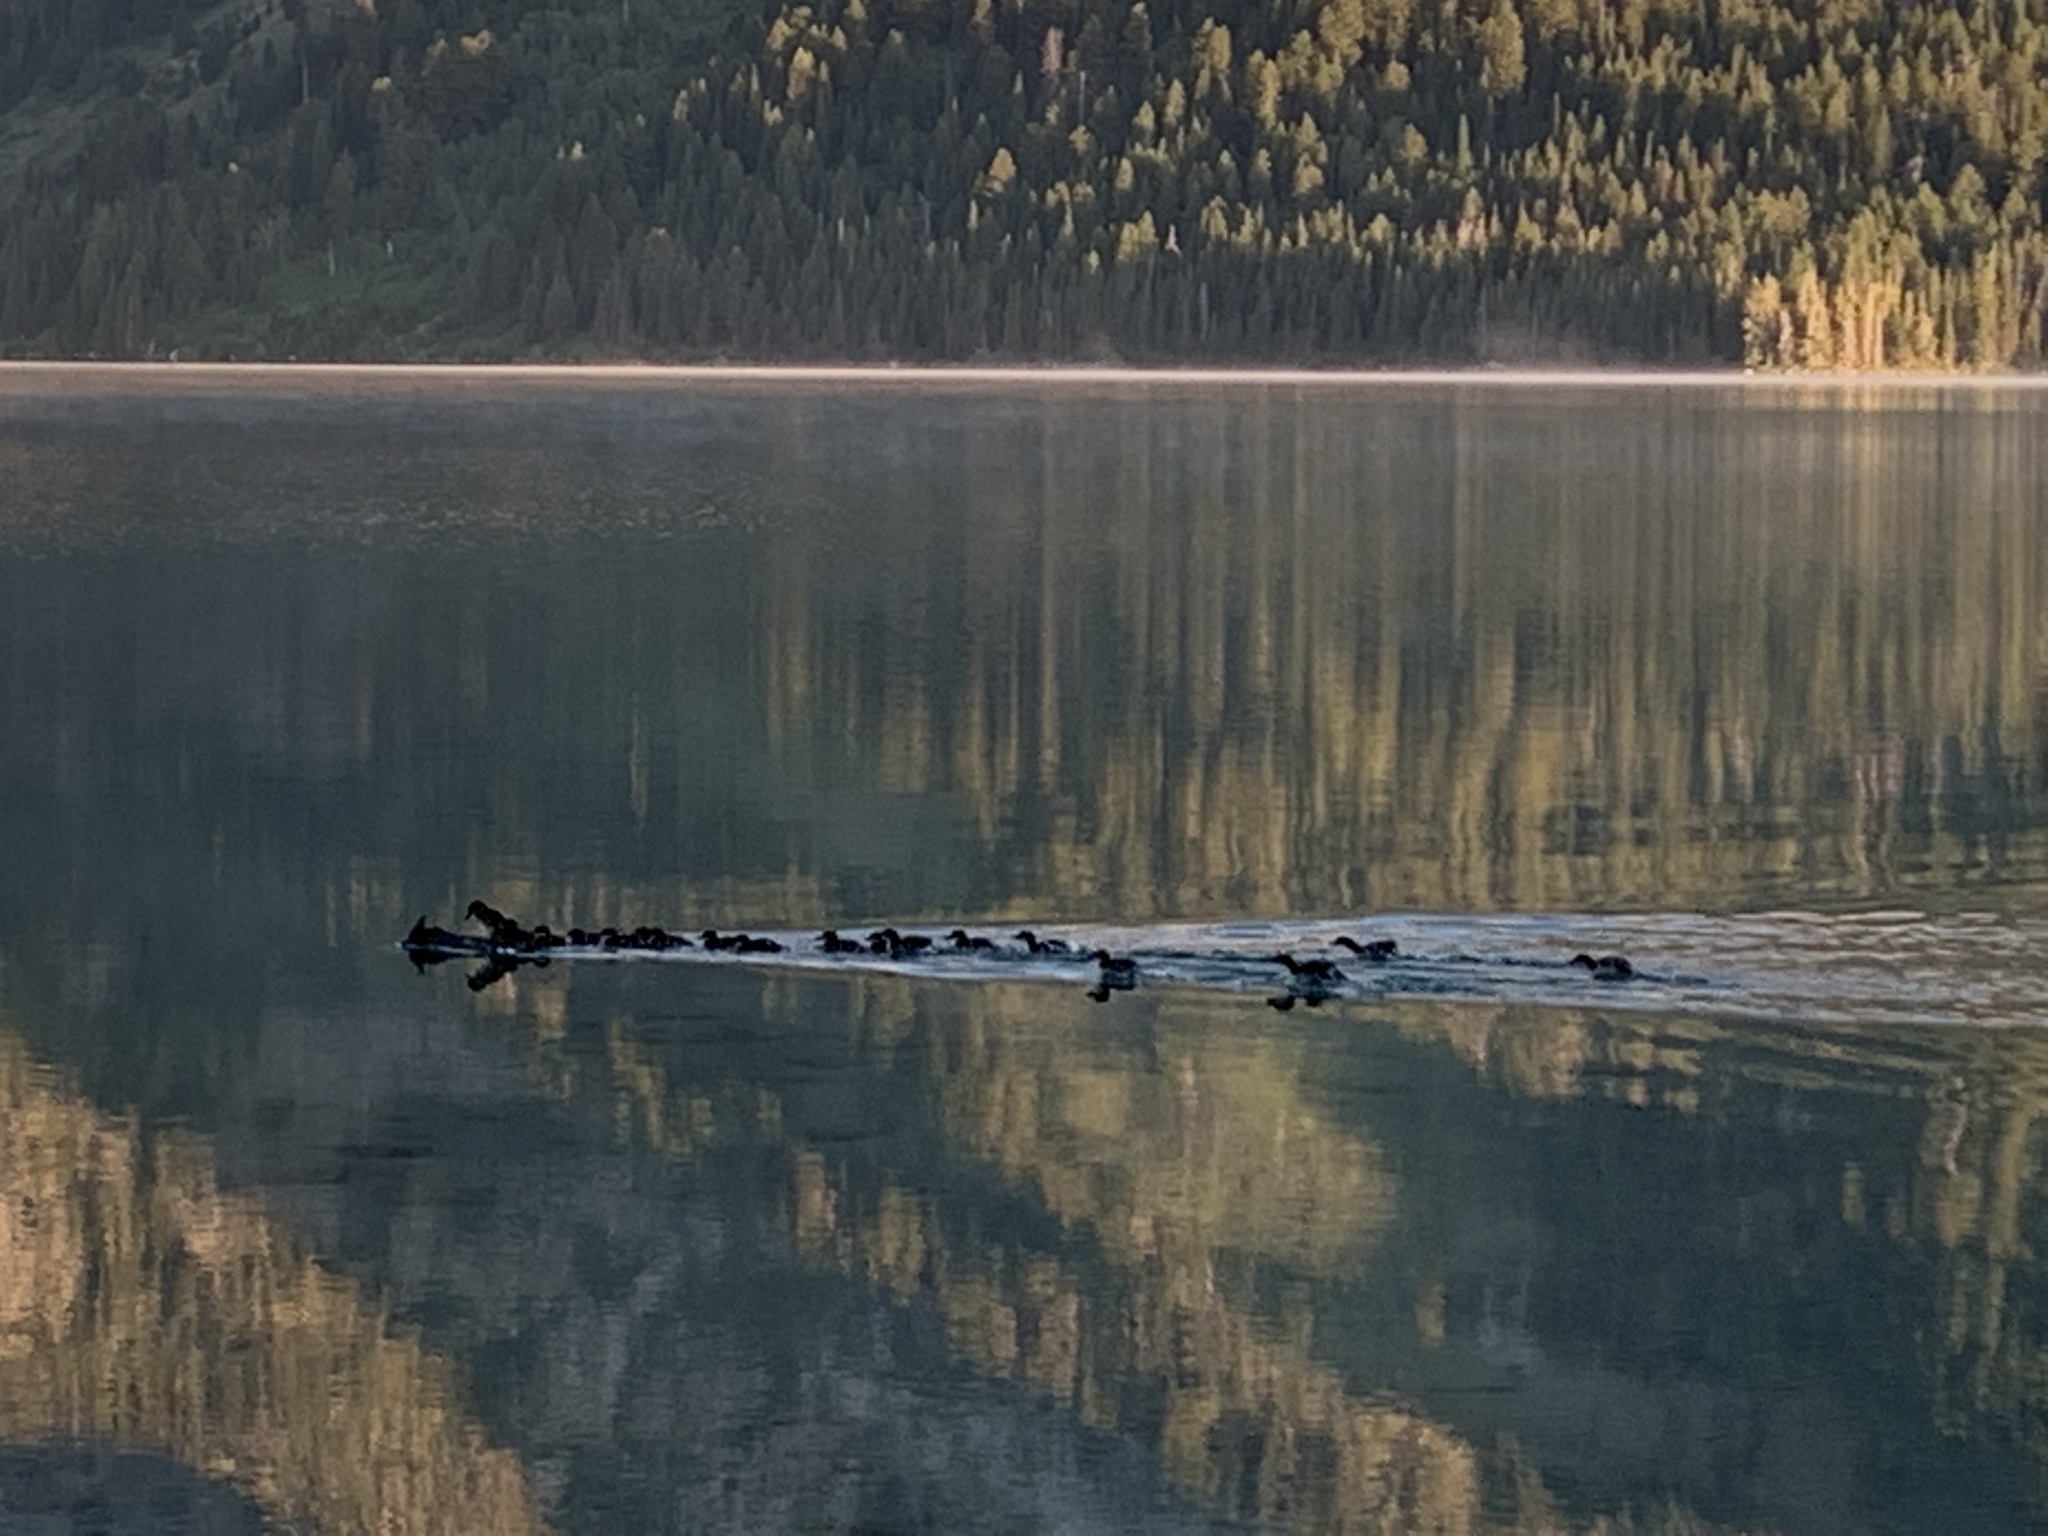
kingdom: Animalia
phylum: Chordata
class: Aves
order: Anseriformes
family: Anatidae
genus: Mergus
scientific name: Mergus merganser
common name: Common merganser
